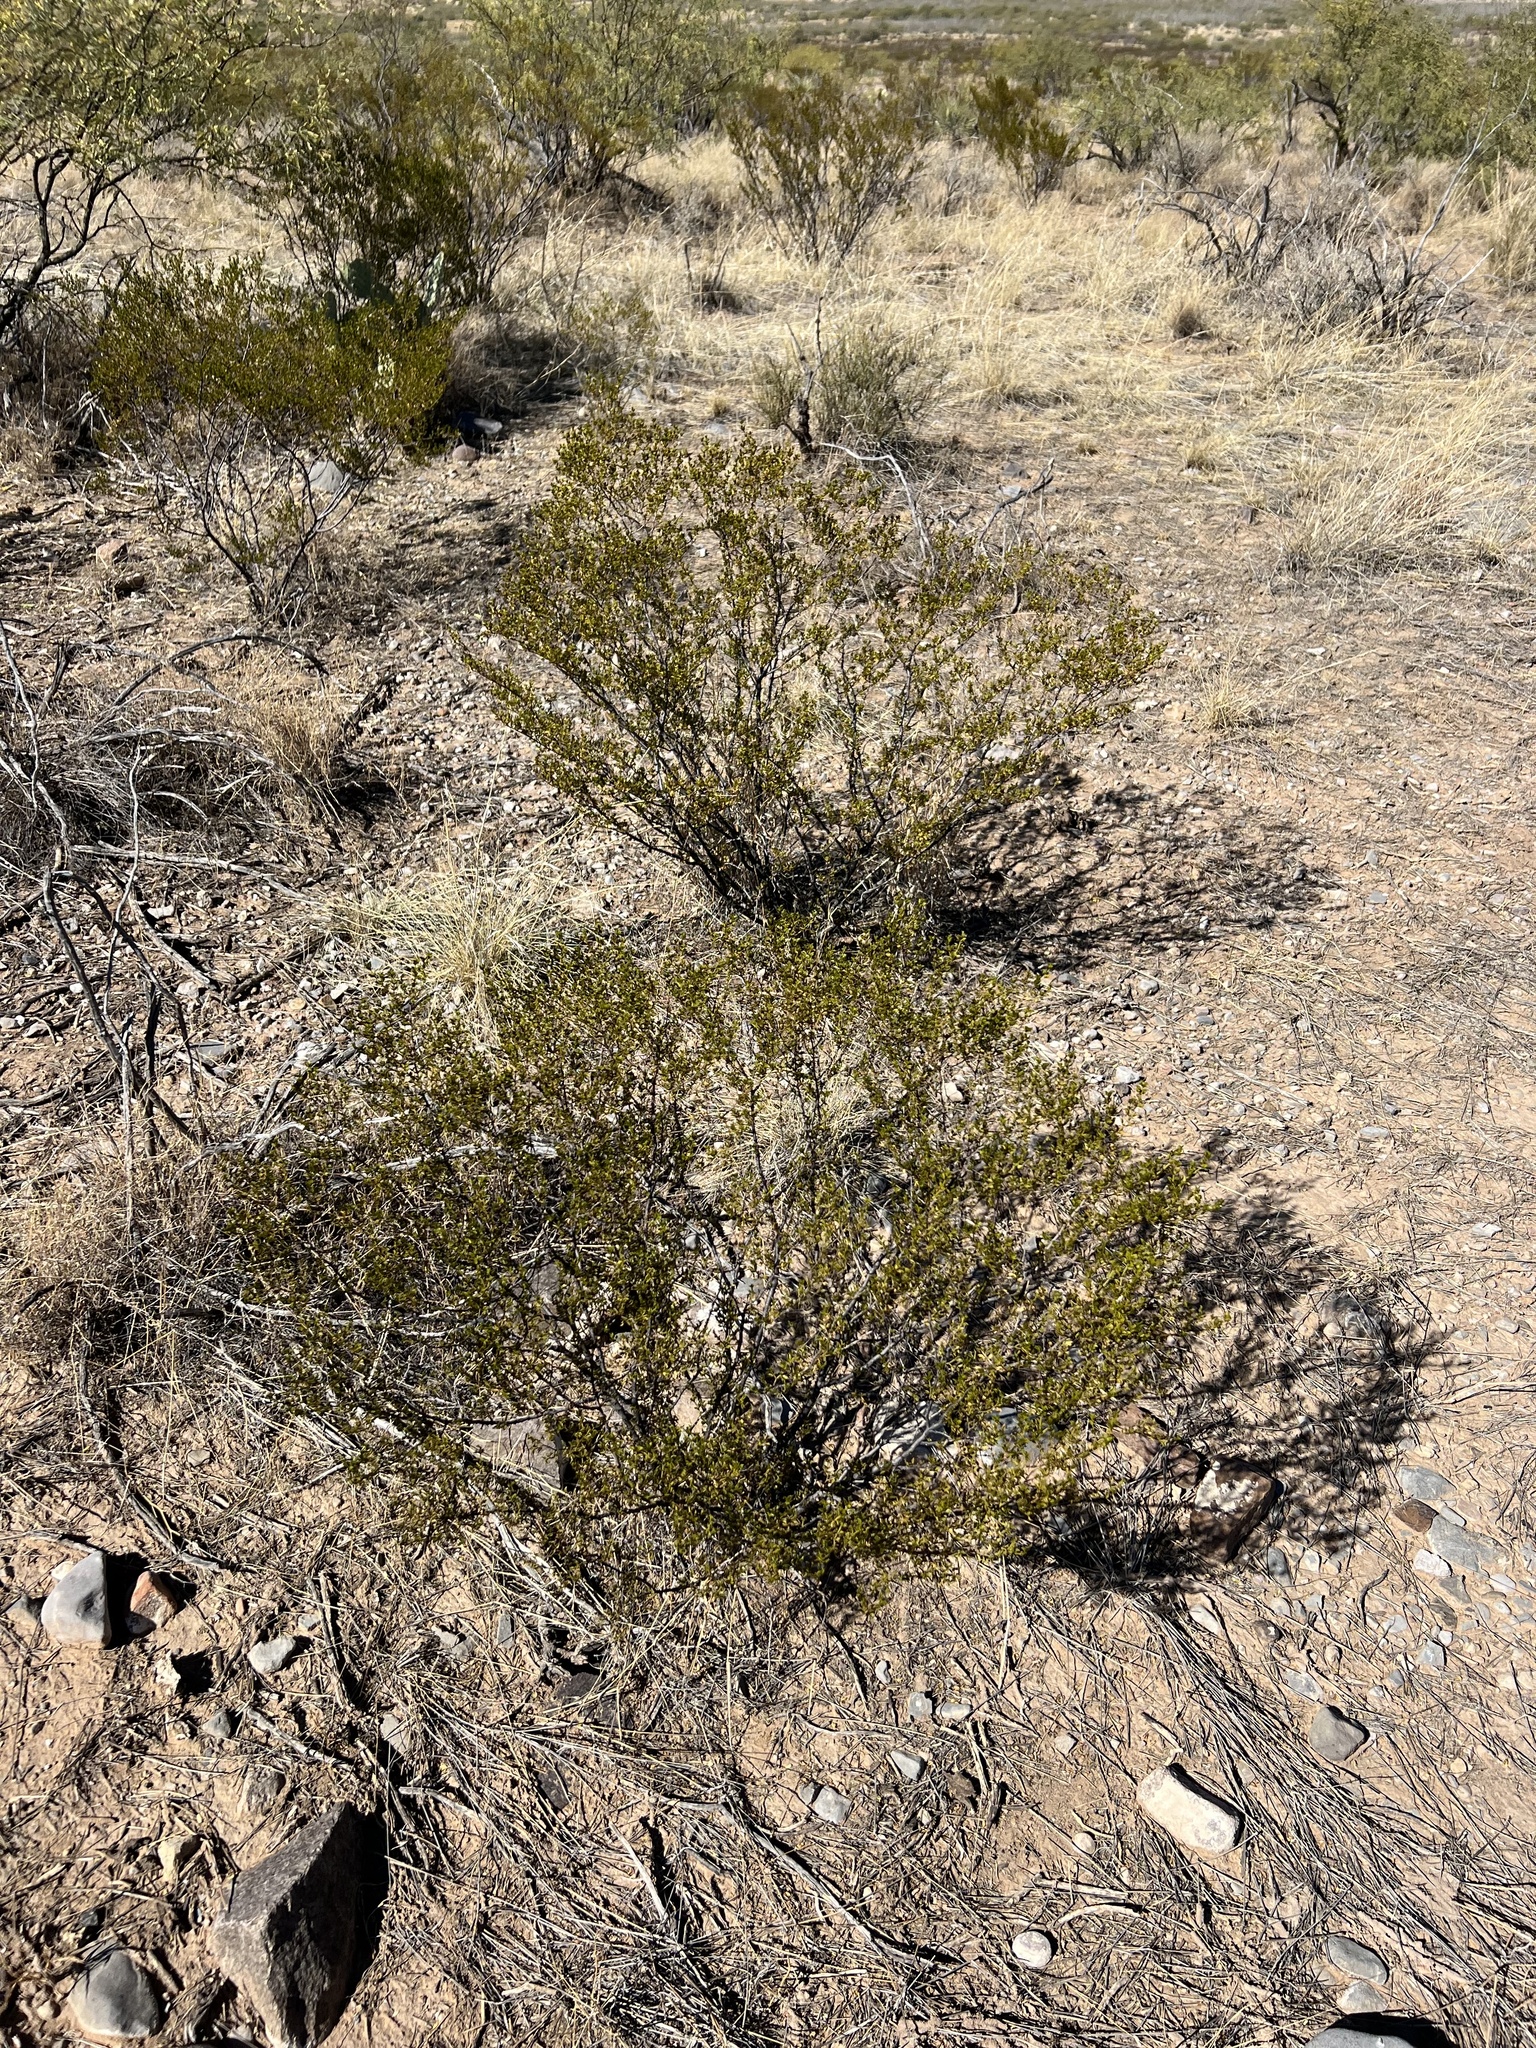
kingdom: Plantae
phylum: Tracheophyta
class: Magnoliopsida
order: Zygophyllales
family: Zygophyllaceae
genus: Larrea
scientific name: Larrea tridentata
